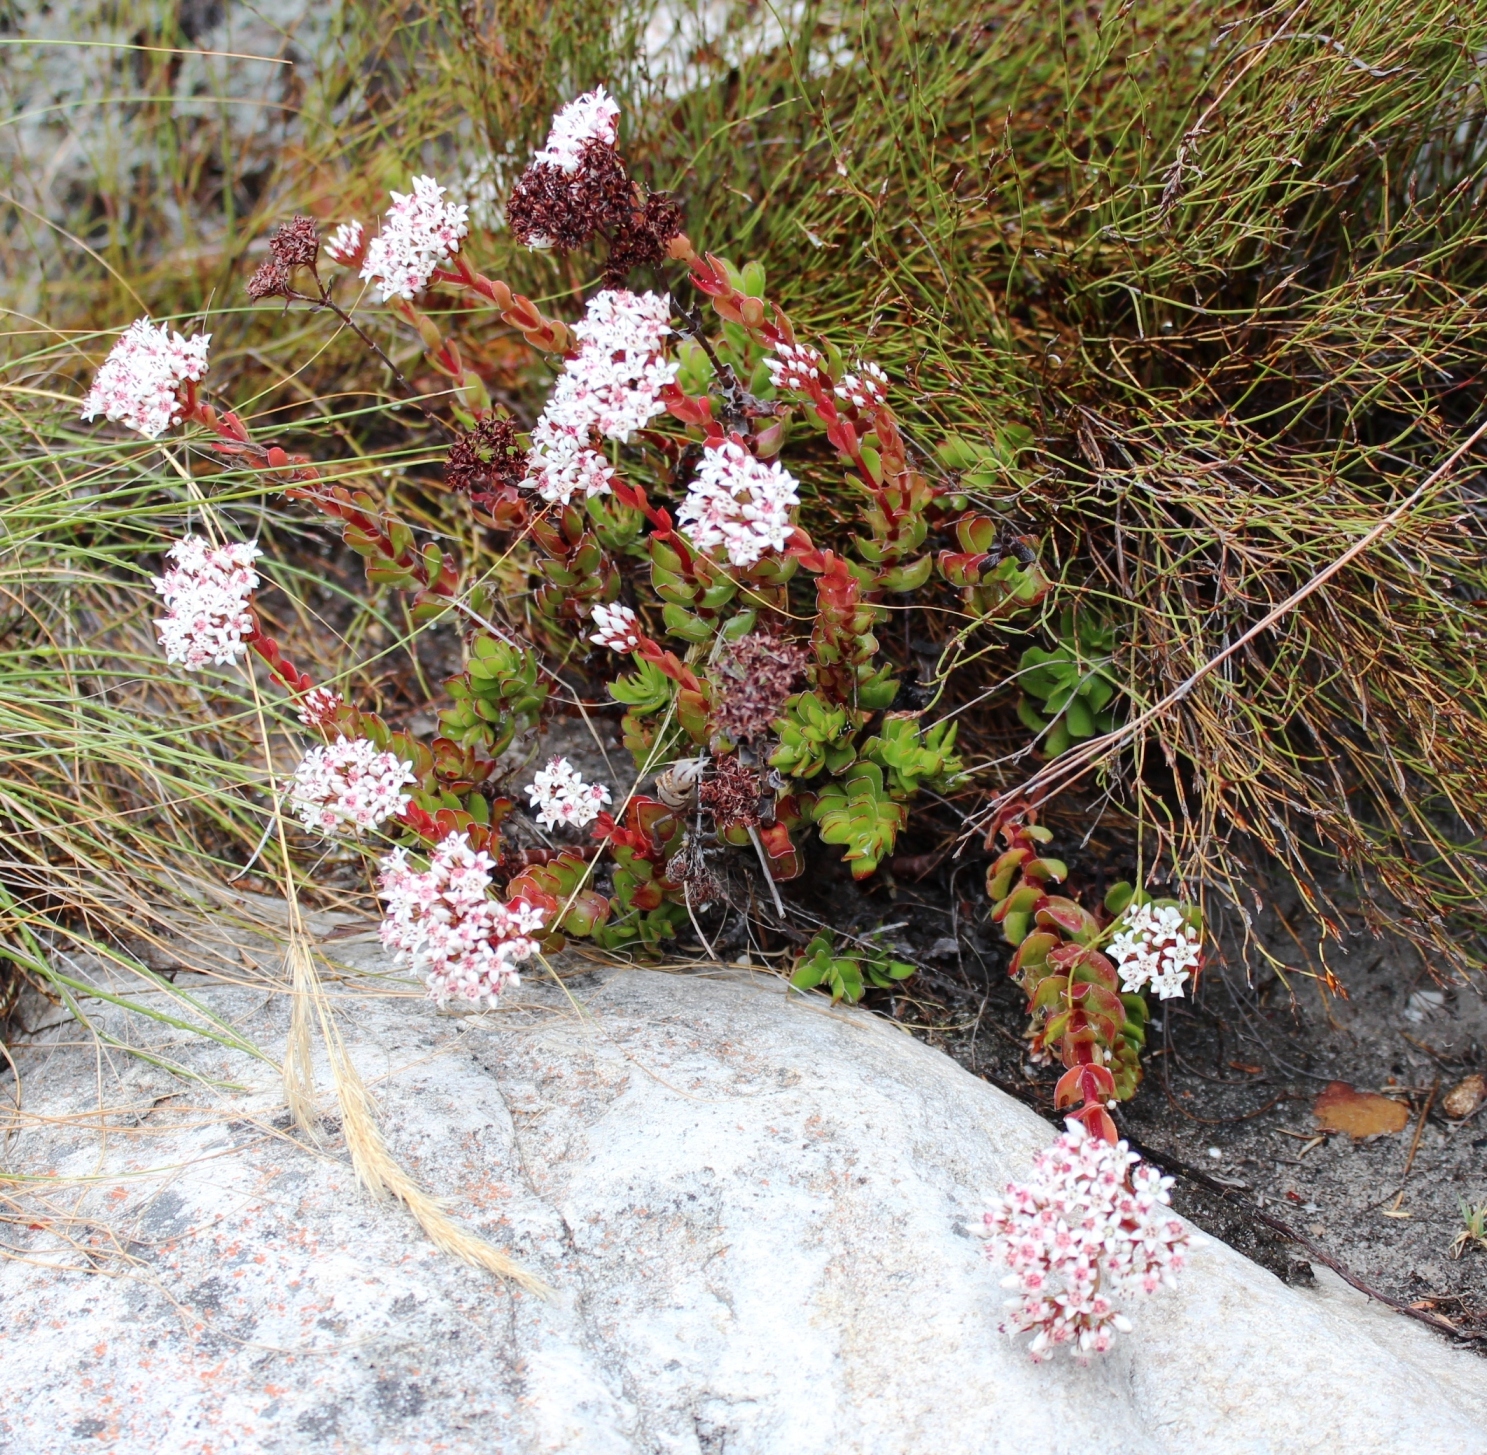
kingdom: Plantae
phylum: Tracheophyta
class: Magnoliopsida
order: Saxifragales
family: Crassulaceae
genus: Crassula
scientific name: Crassula undulata
